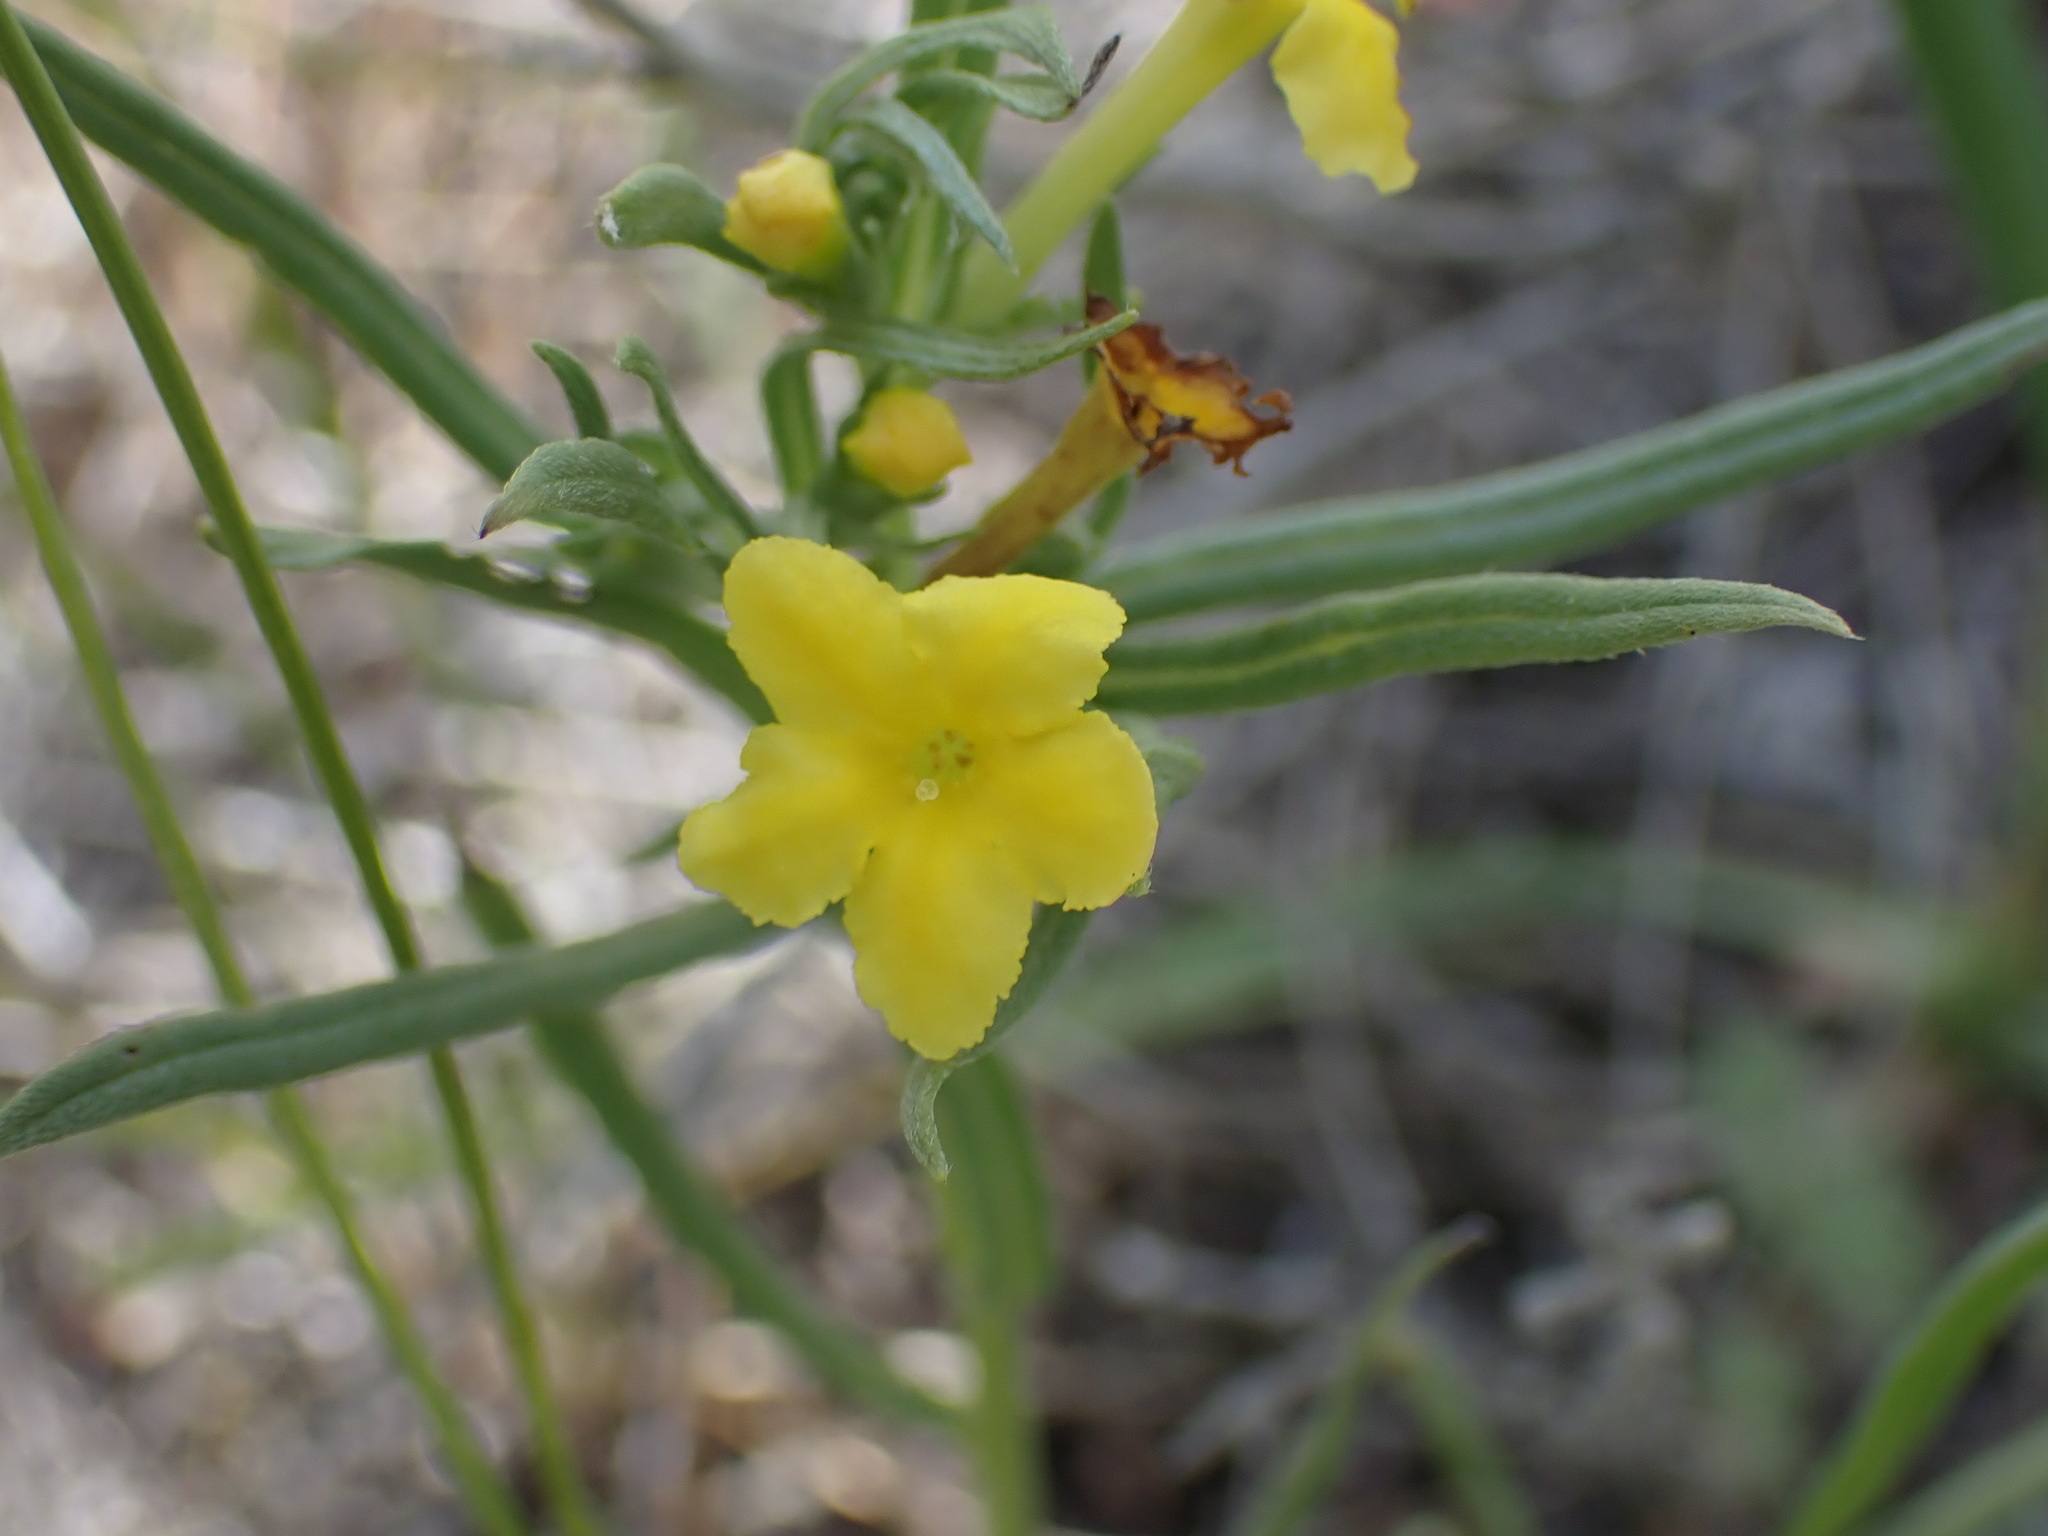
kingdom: Plantae
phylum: Tracheophyta
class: Magnoliopsida
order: Boraginales
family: Boraginaceae
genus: Lithospermum
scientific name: Lithospermum incisum
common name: Fringed gromwell
